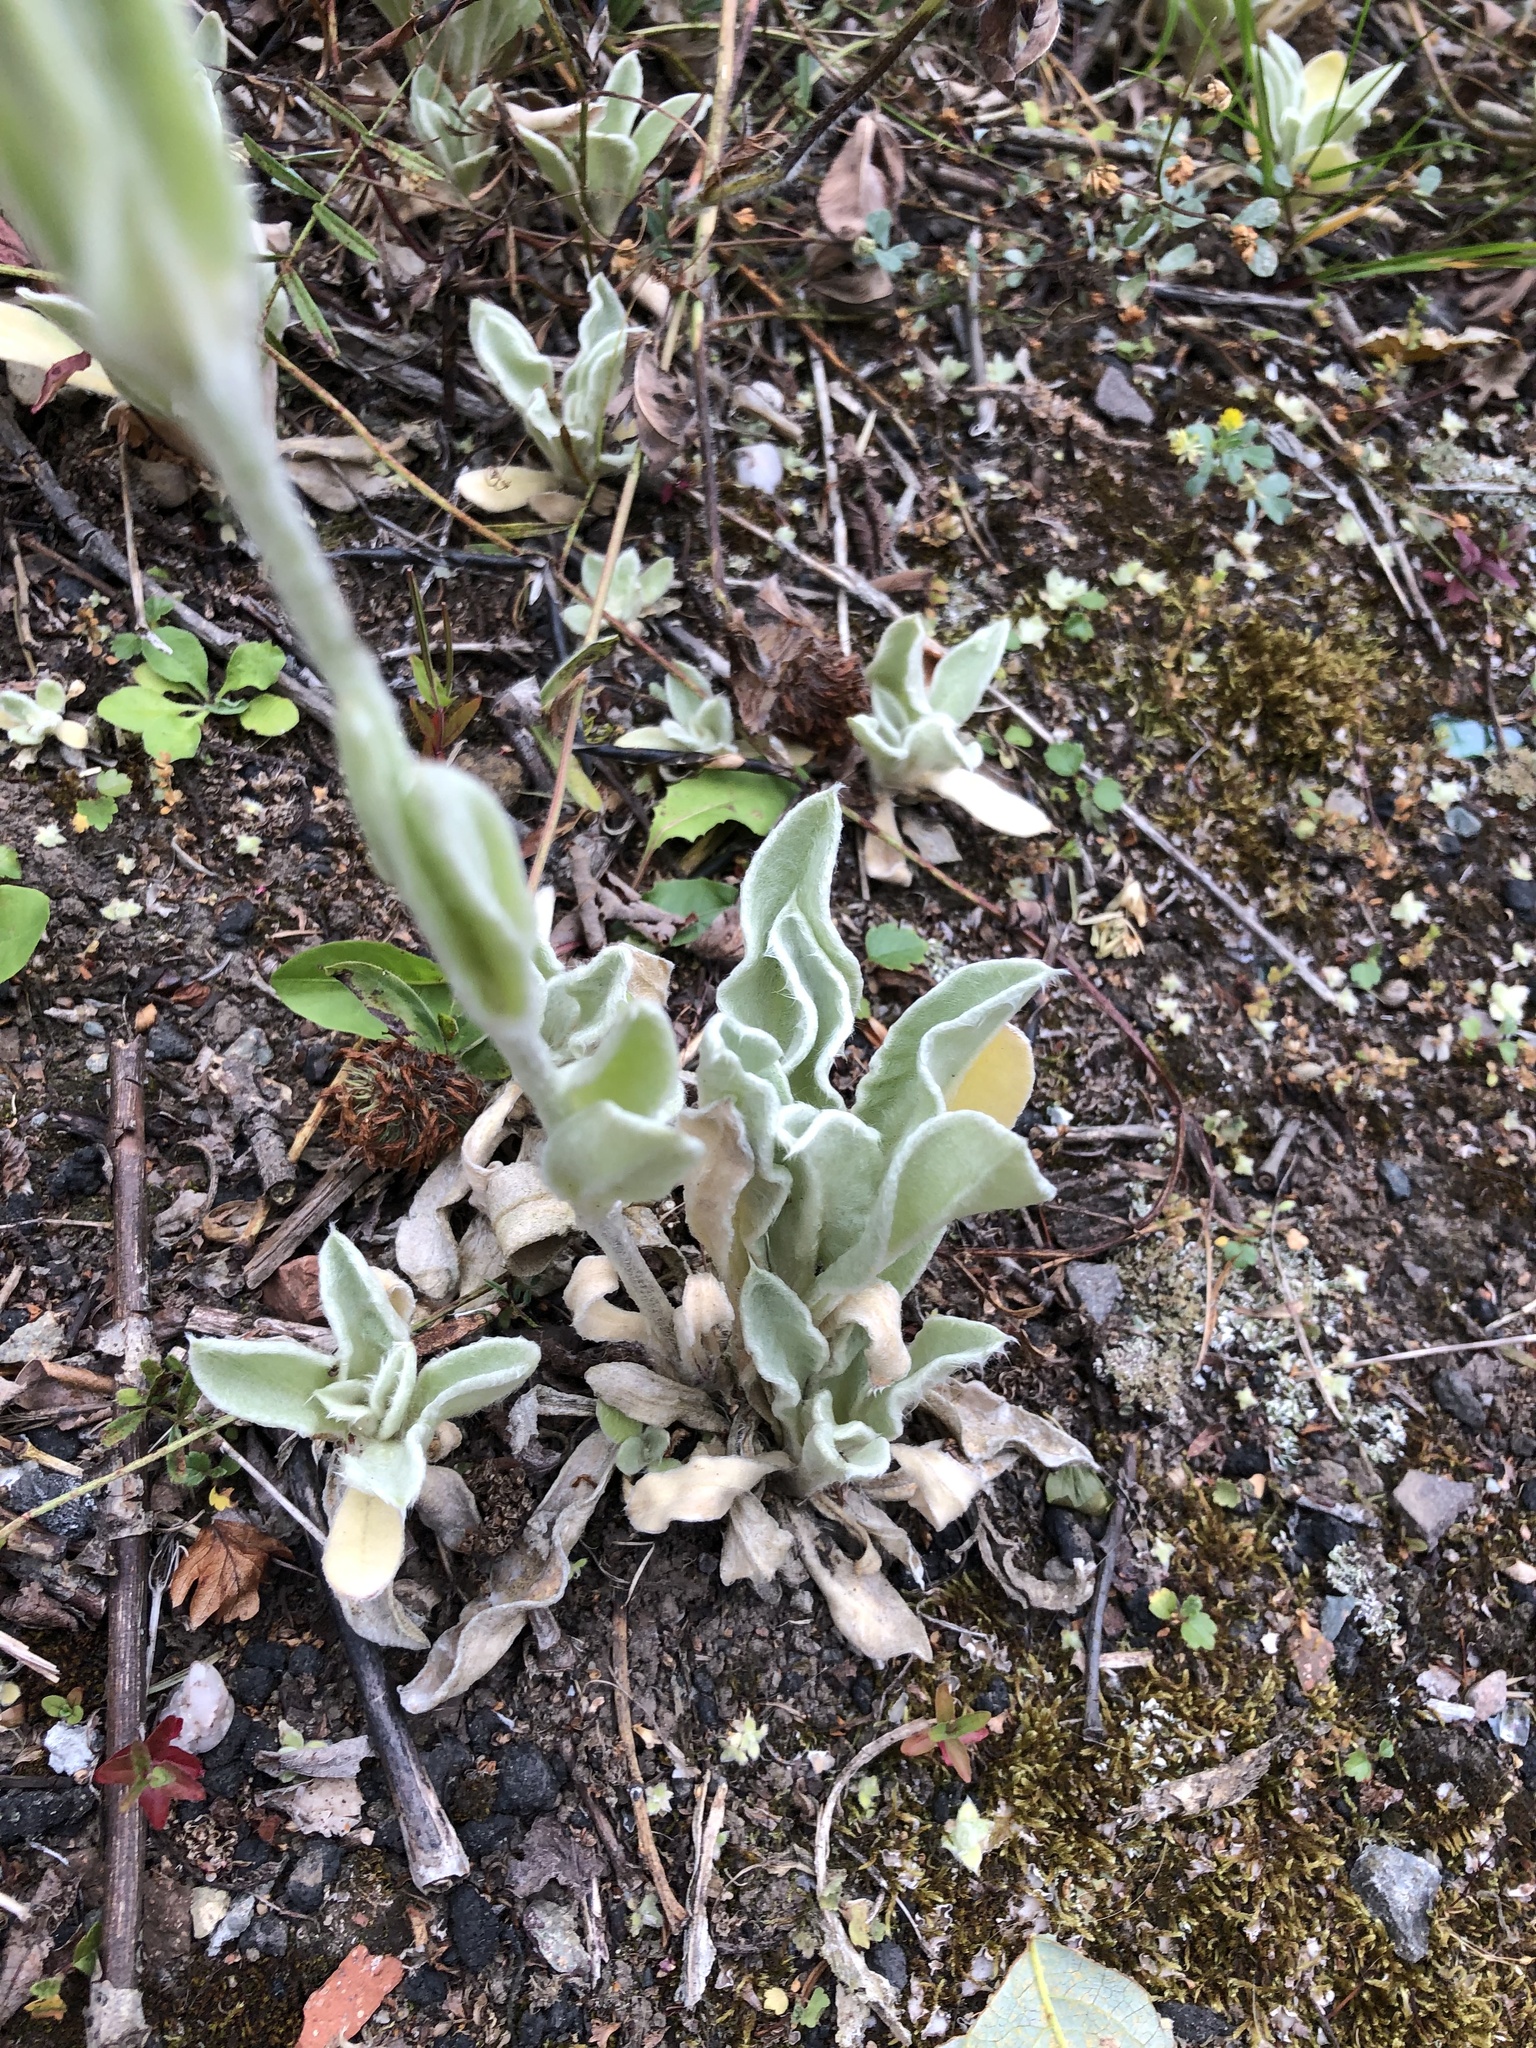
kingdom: Plantae
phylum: Tracheophyta
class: Magnoliopsida
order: Caryophyllales
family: Caryophyllaceae
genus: Silene
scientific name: Silene coronaria
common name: Rose campion
